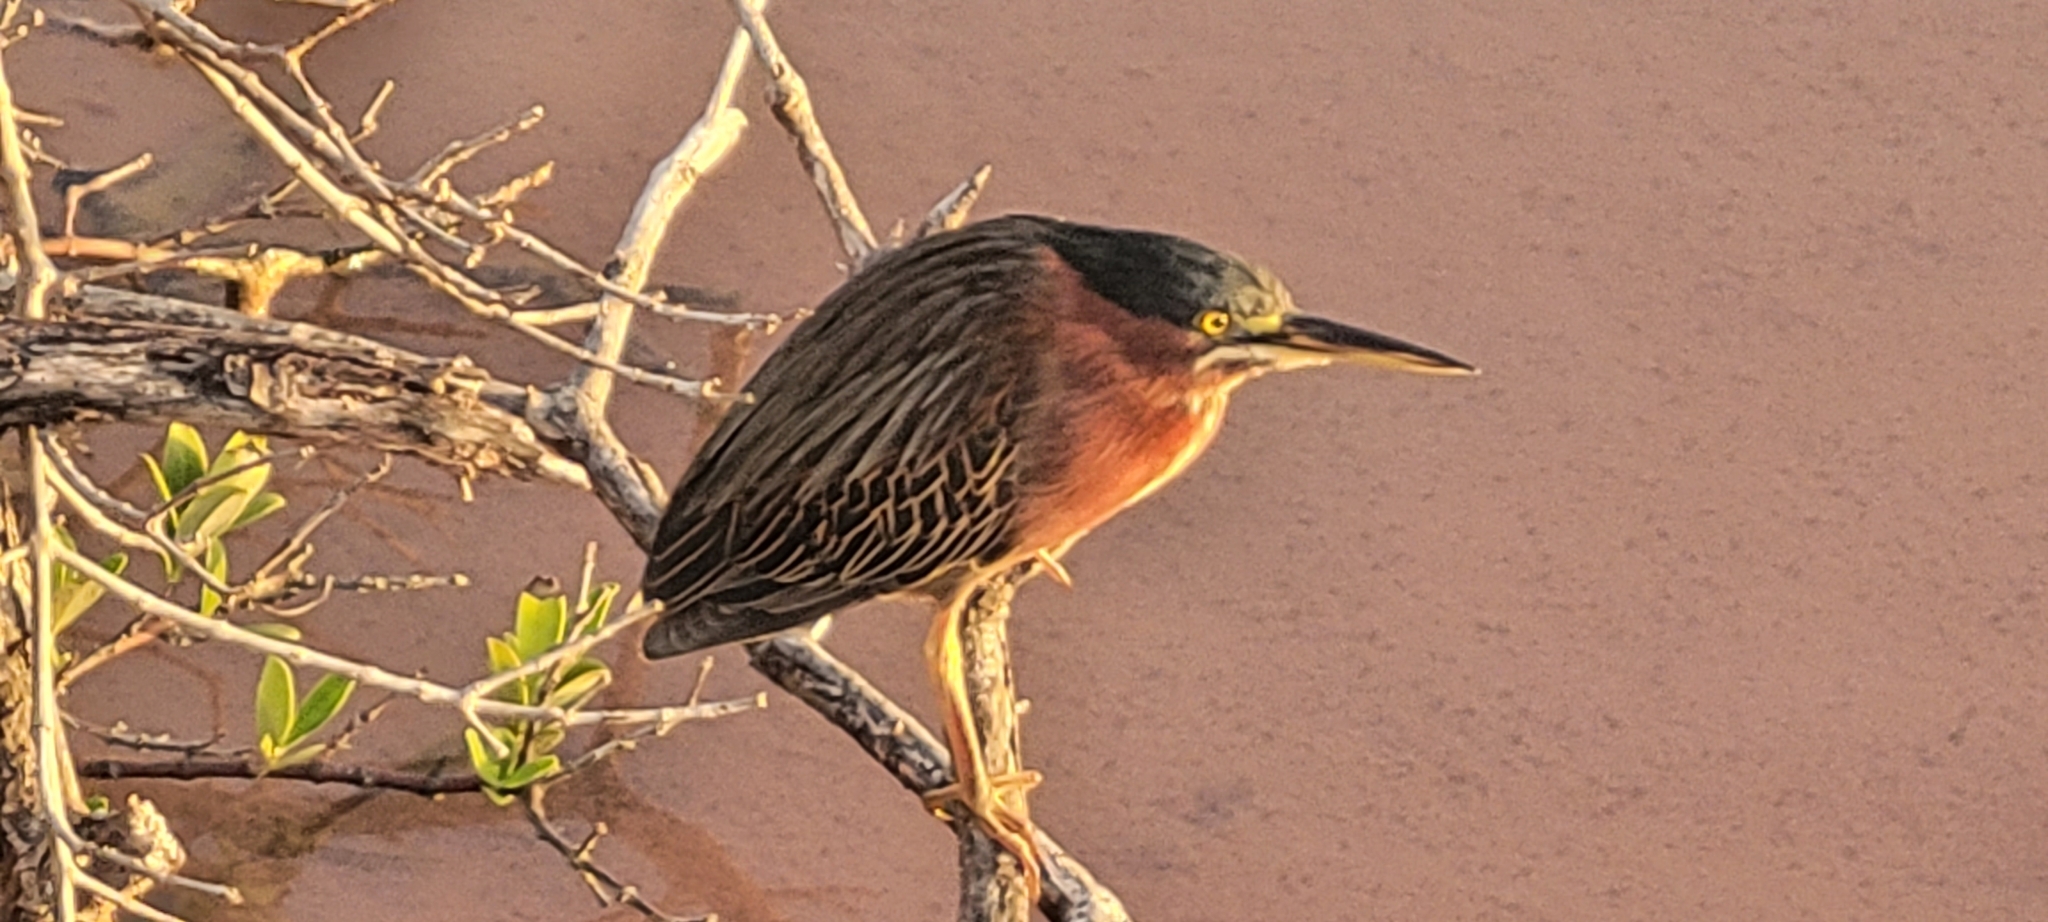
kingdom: Animalia
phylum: Chordata
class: Aves
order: Pelecaniformes
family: Ardeidae
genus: Butorides
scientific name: Butorides virescens
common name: Green heron
